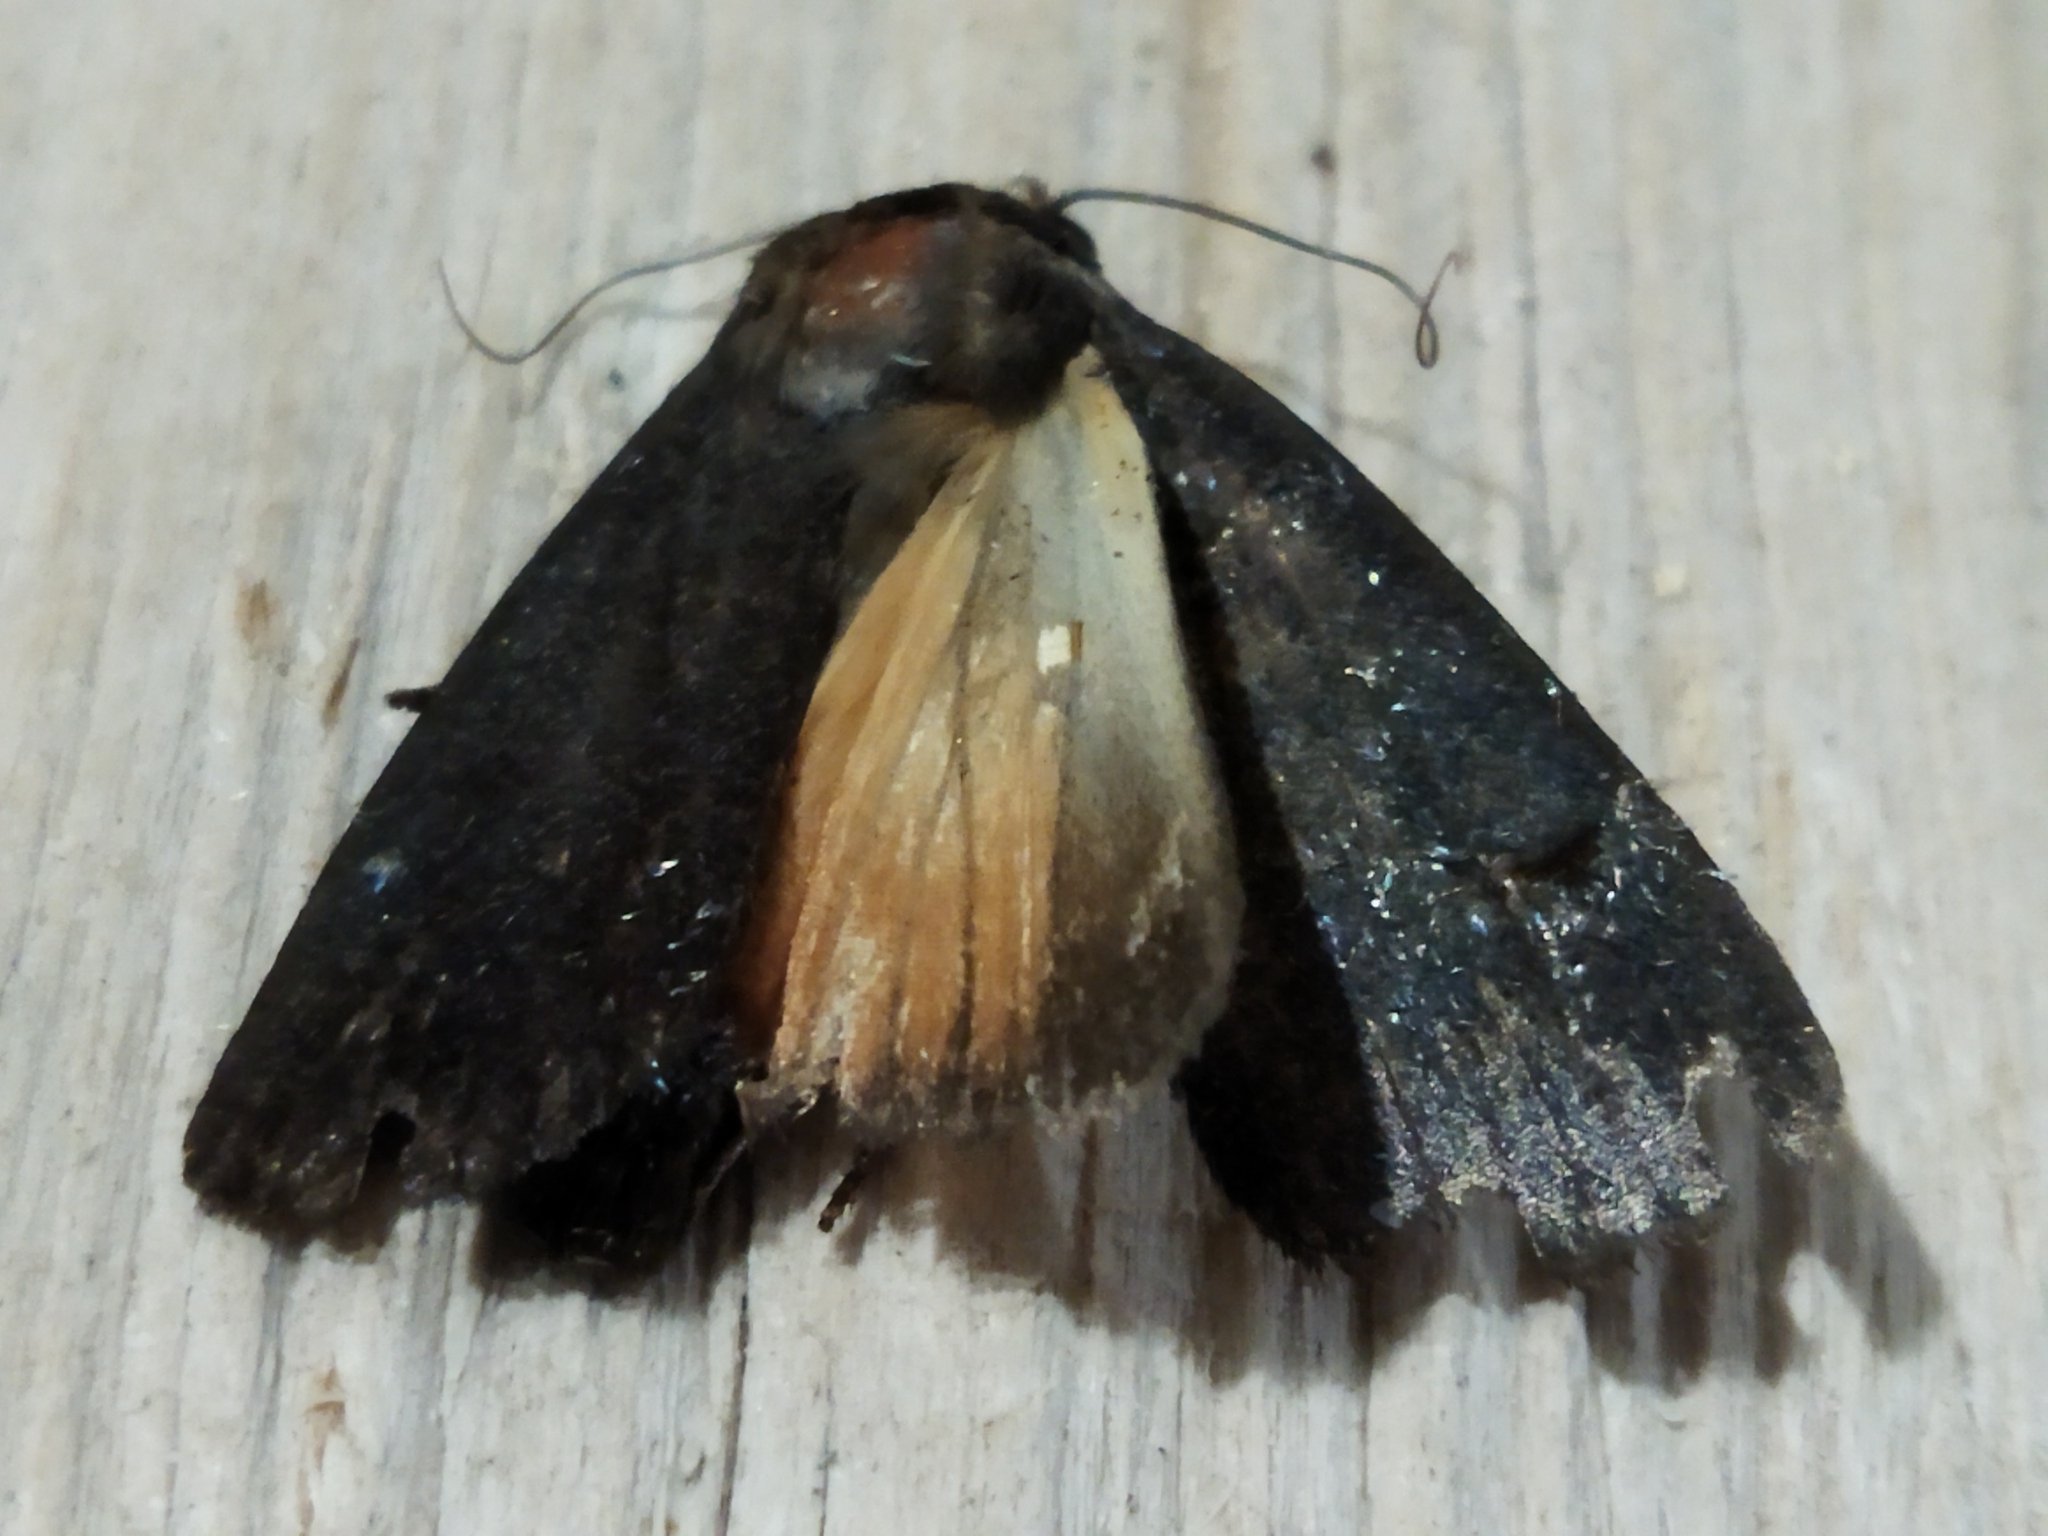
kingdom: Animalia
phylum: Arthropoda
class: Insecta
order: Lepidoptera
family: Noctuidae
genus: Amphipyra
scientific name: Amphipyra livida
